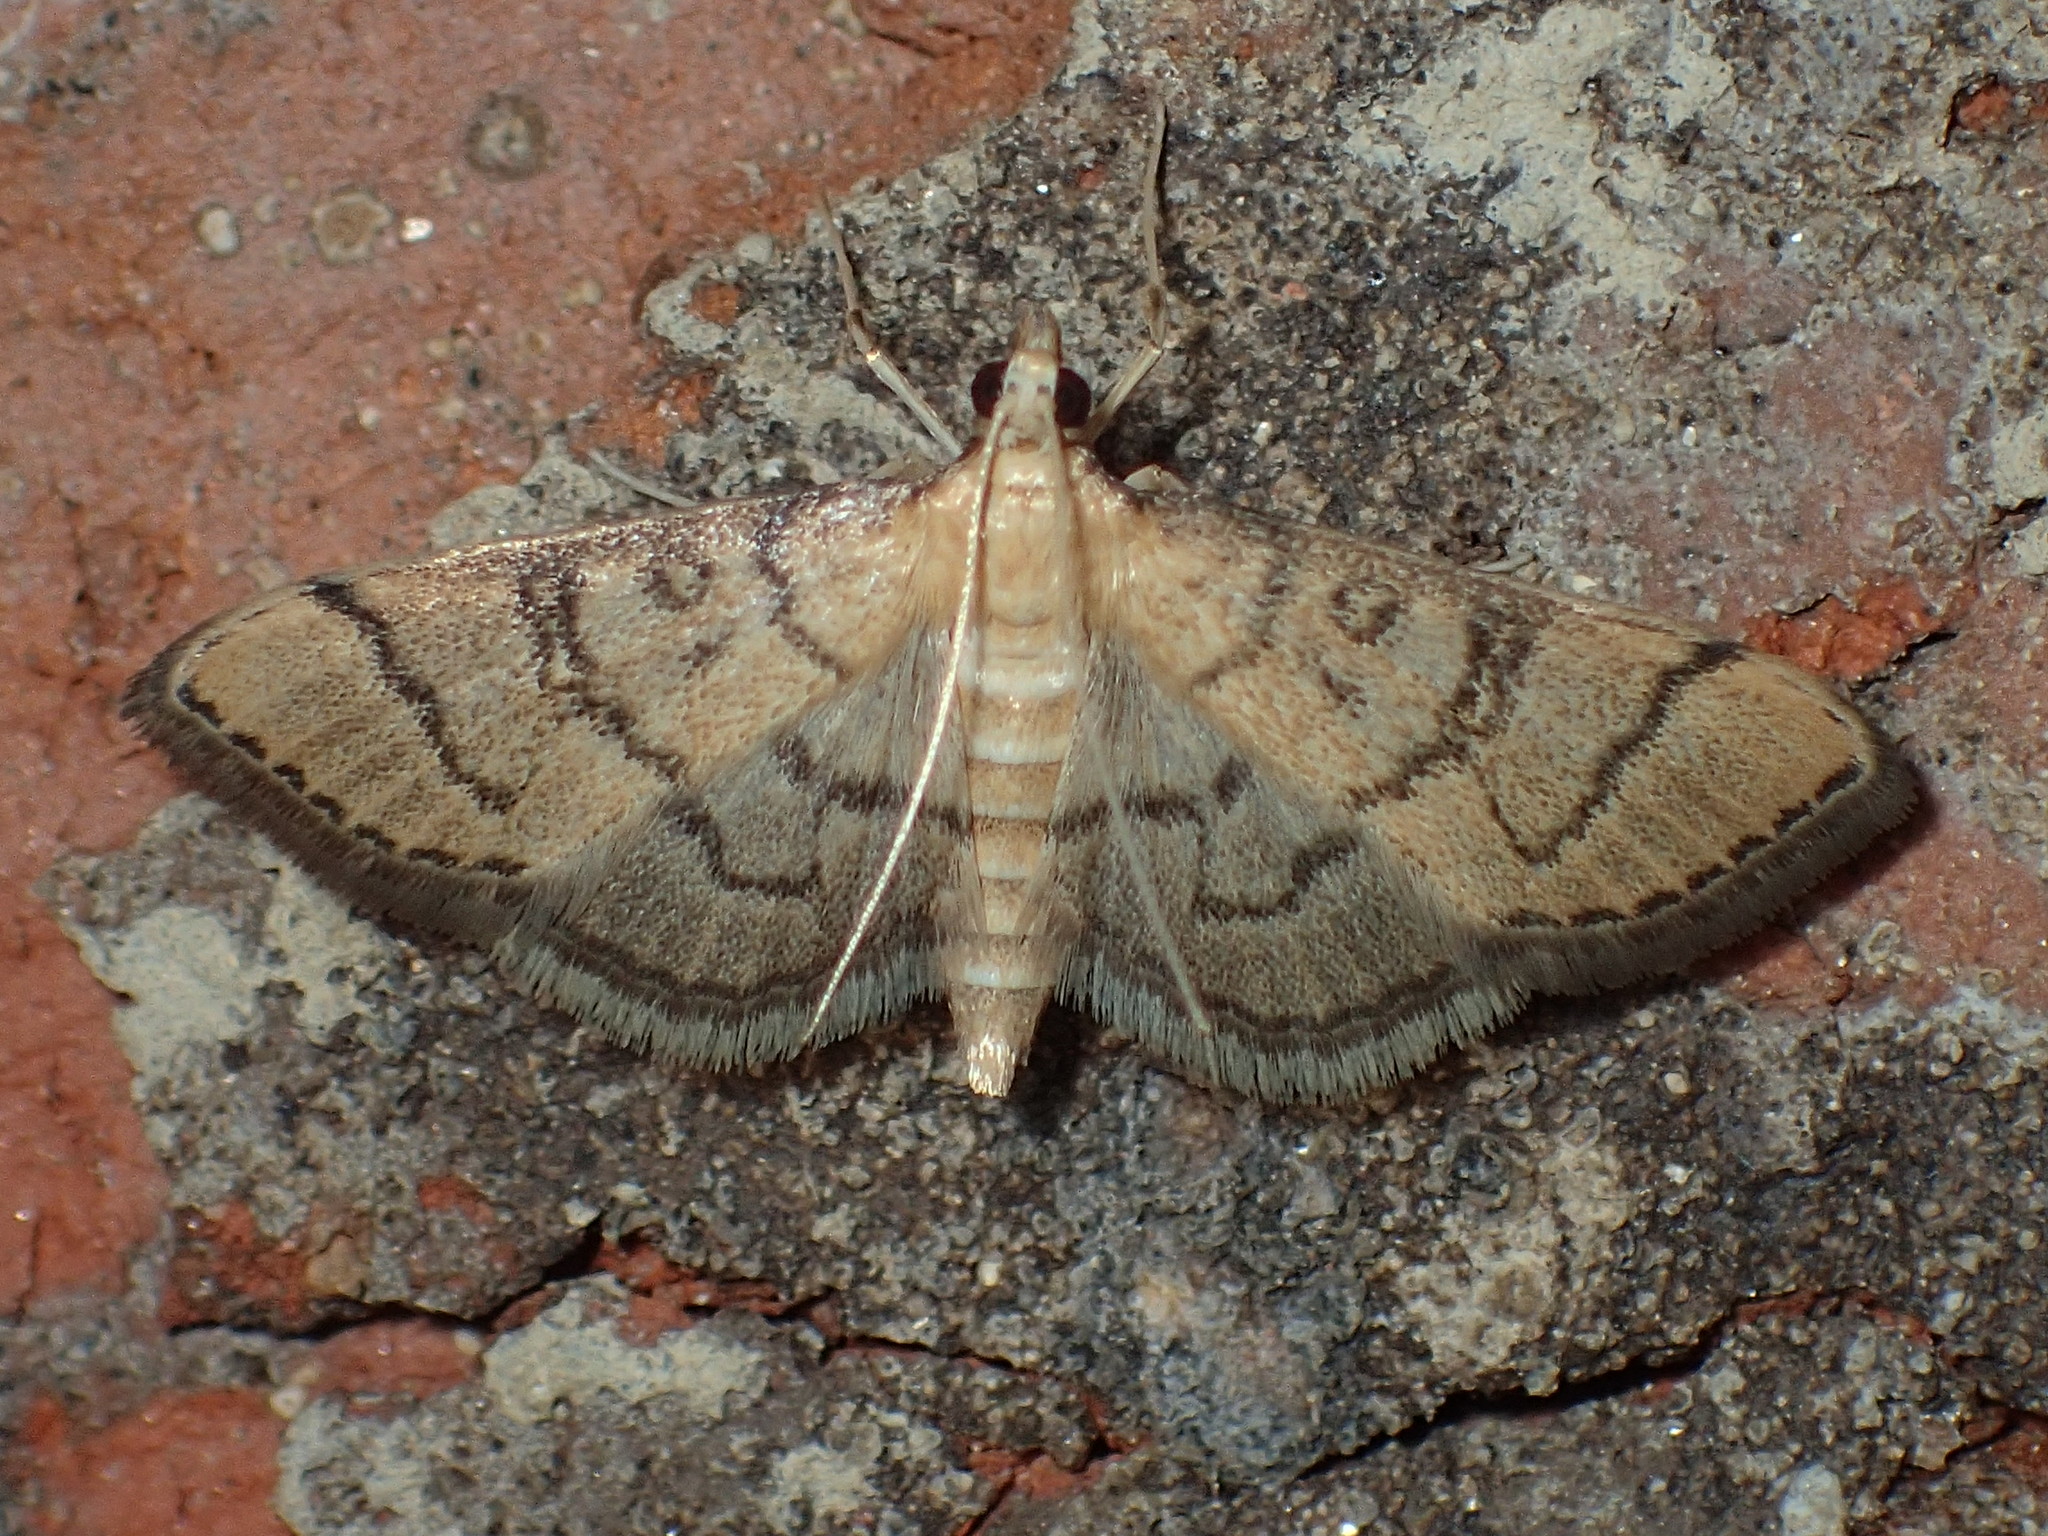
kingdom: Animalia
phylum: Arthropoda
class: Insecta
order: Lepidoptera
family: Crambidae
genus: Lamprosema
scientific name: Lamprosema Blepharomastix ranalis
